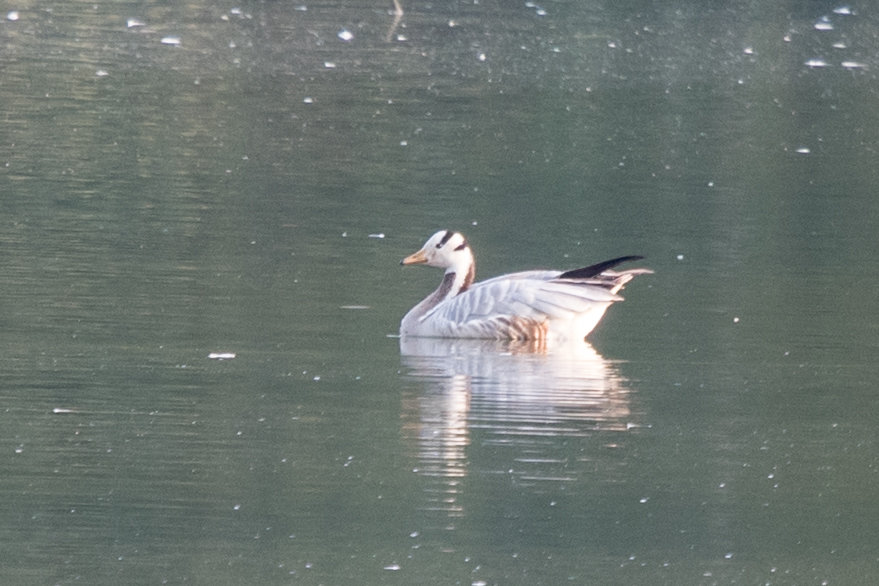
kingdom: Animalia
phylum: Chordata
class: Aves
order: Anseriformes
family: Anatidae
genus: Anser
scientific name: Anser indicus
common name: Bar-headed goose
